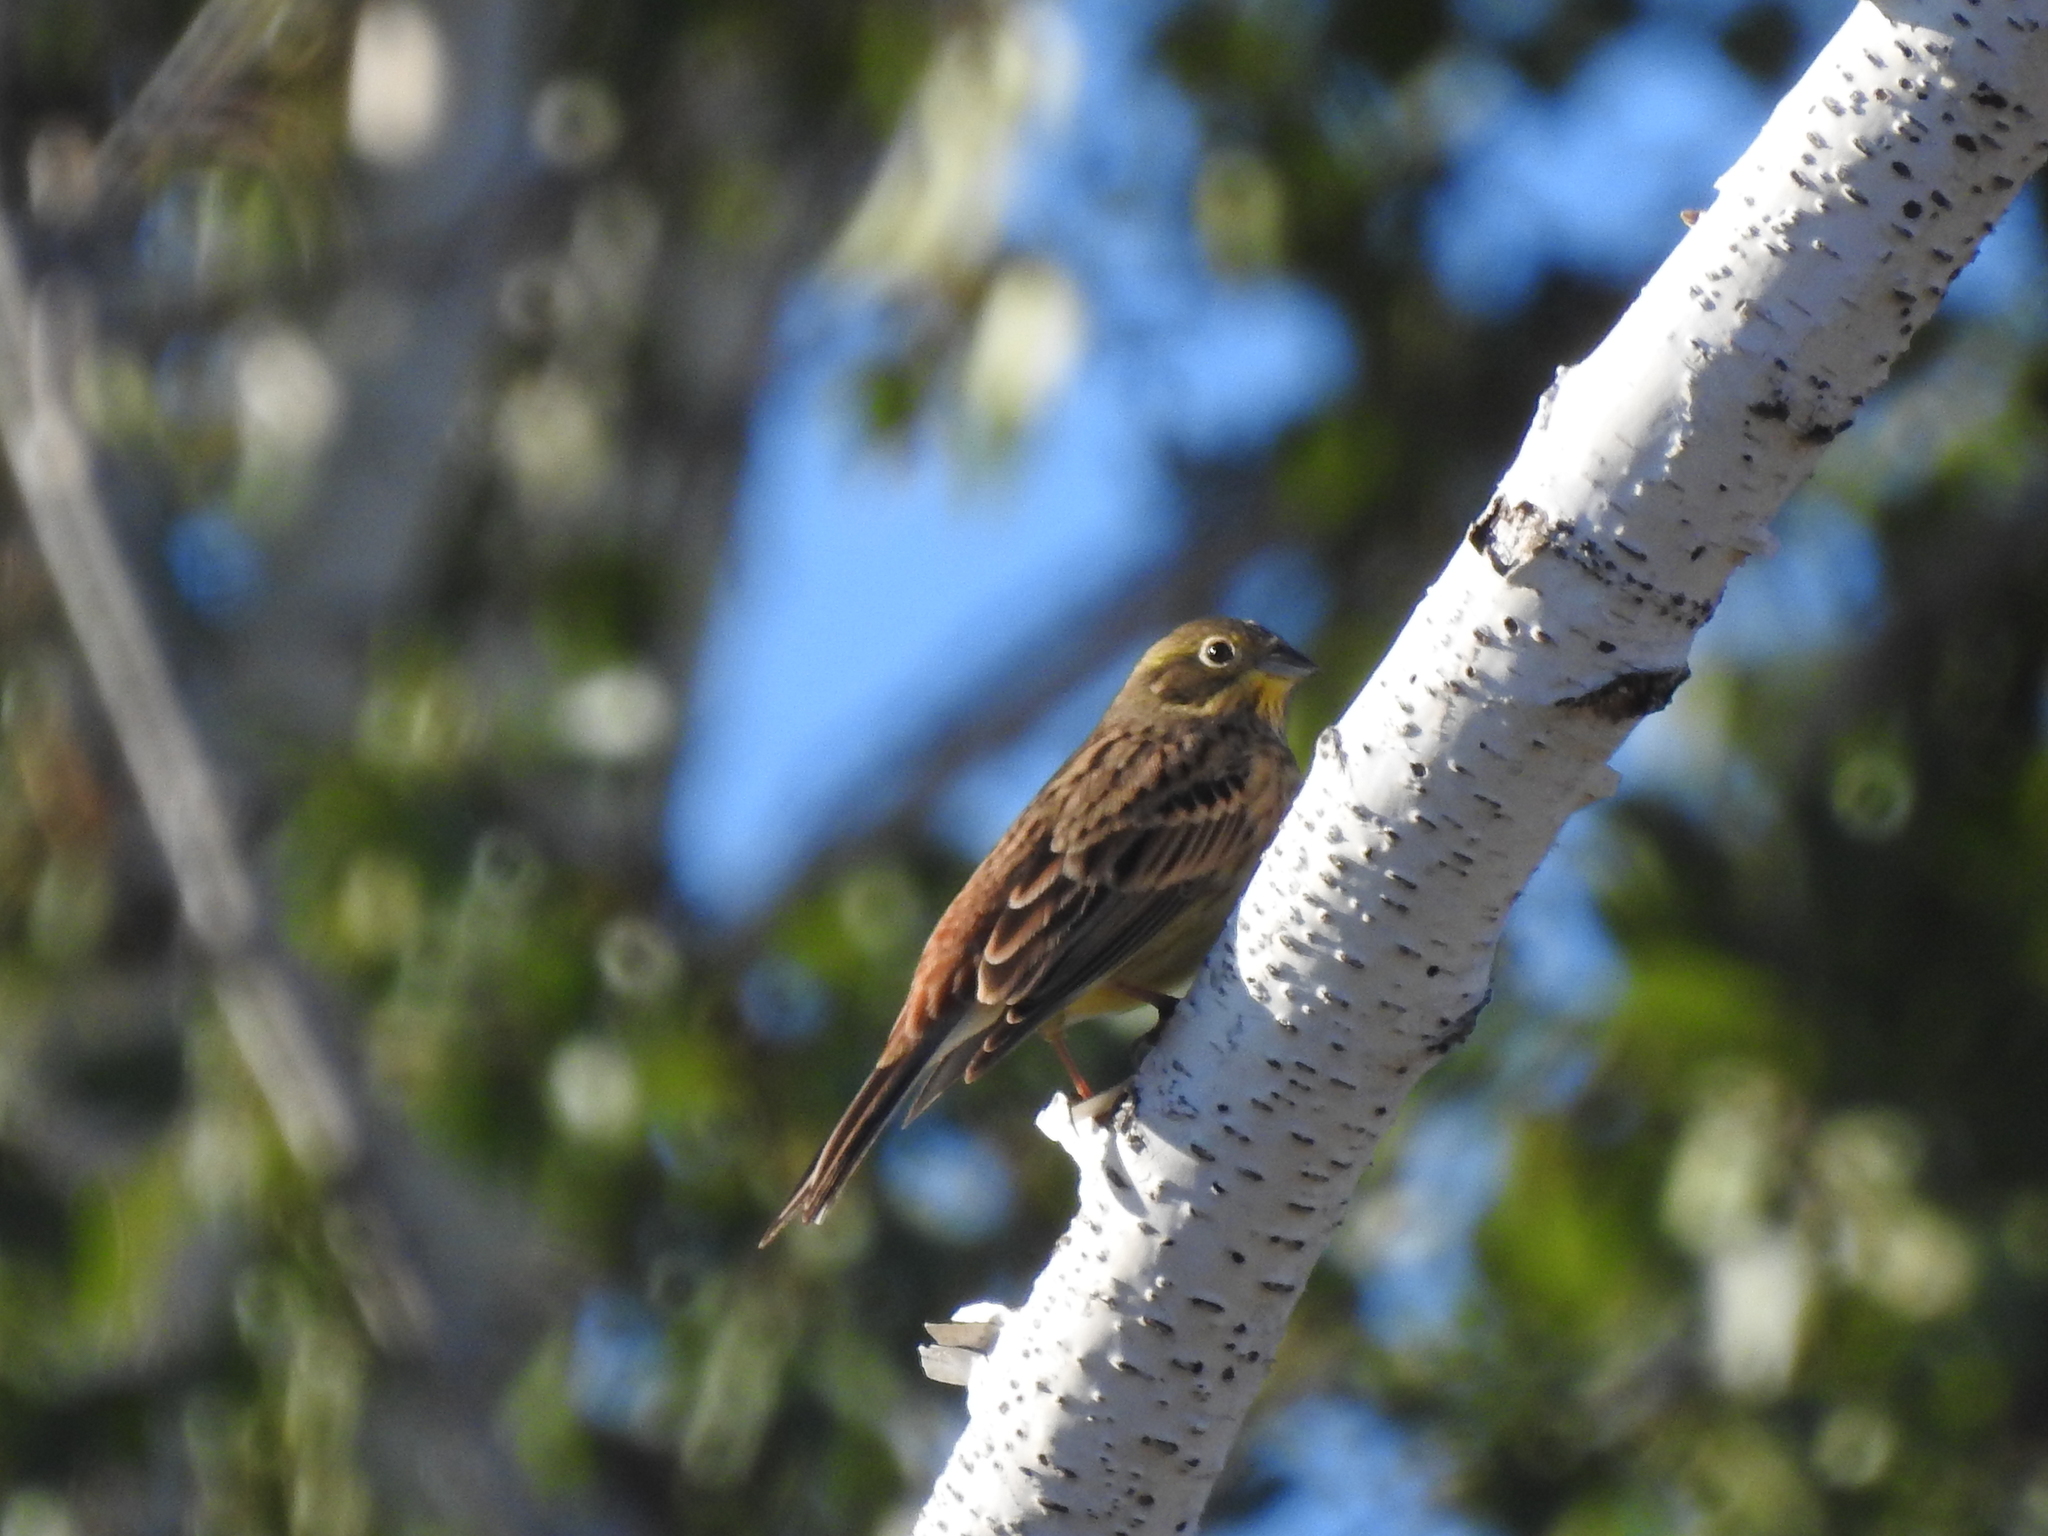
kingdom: Animalia
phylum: Chordata
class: Aves
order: Passeriformes
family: Emberizidae
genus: Emberiza
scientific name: Emberiza hortulana
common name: Ortolan bunting
